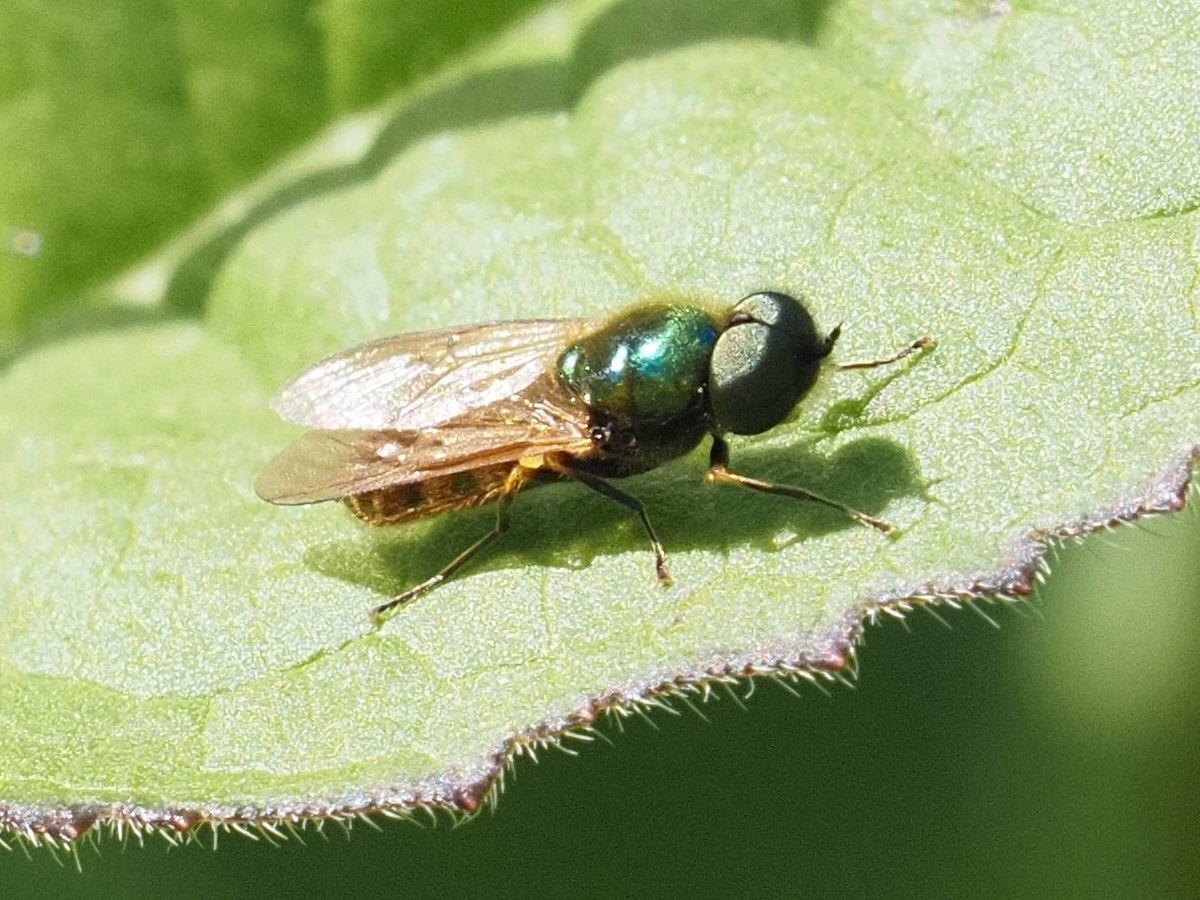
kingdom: Animalia
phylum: Arthropoda
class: Insecta
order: Diptera
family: Stratiomyidae
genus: Chloromyia
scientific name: Chloromyia formosa
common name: Soldier fly
